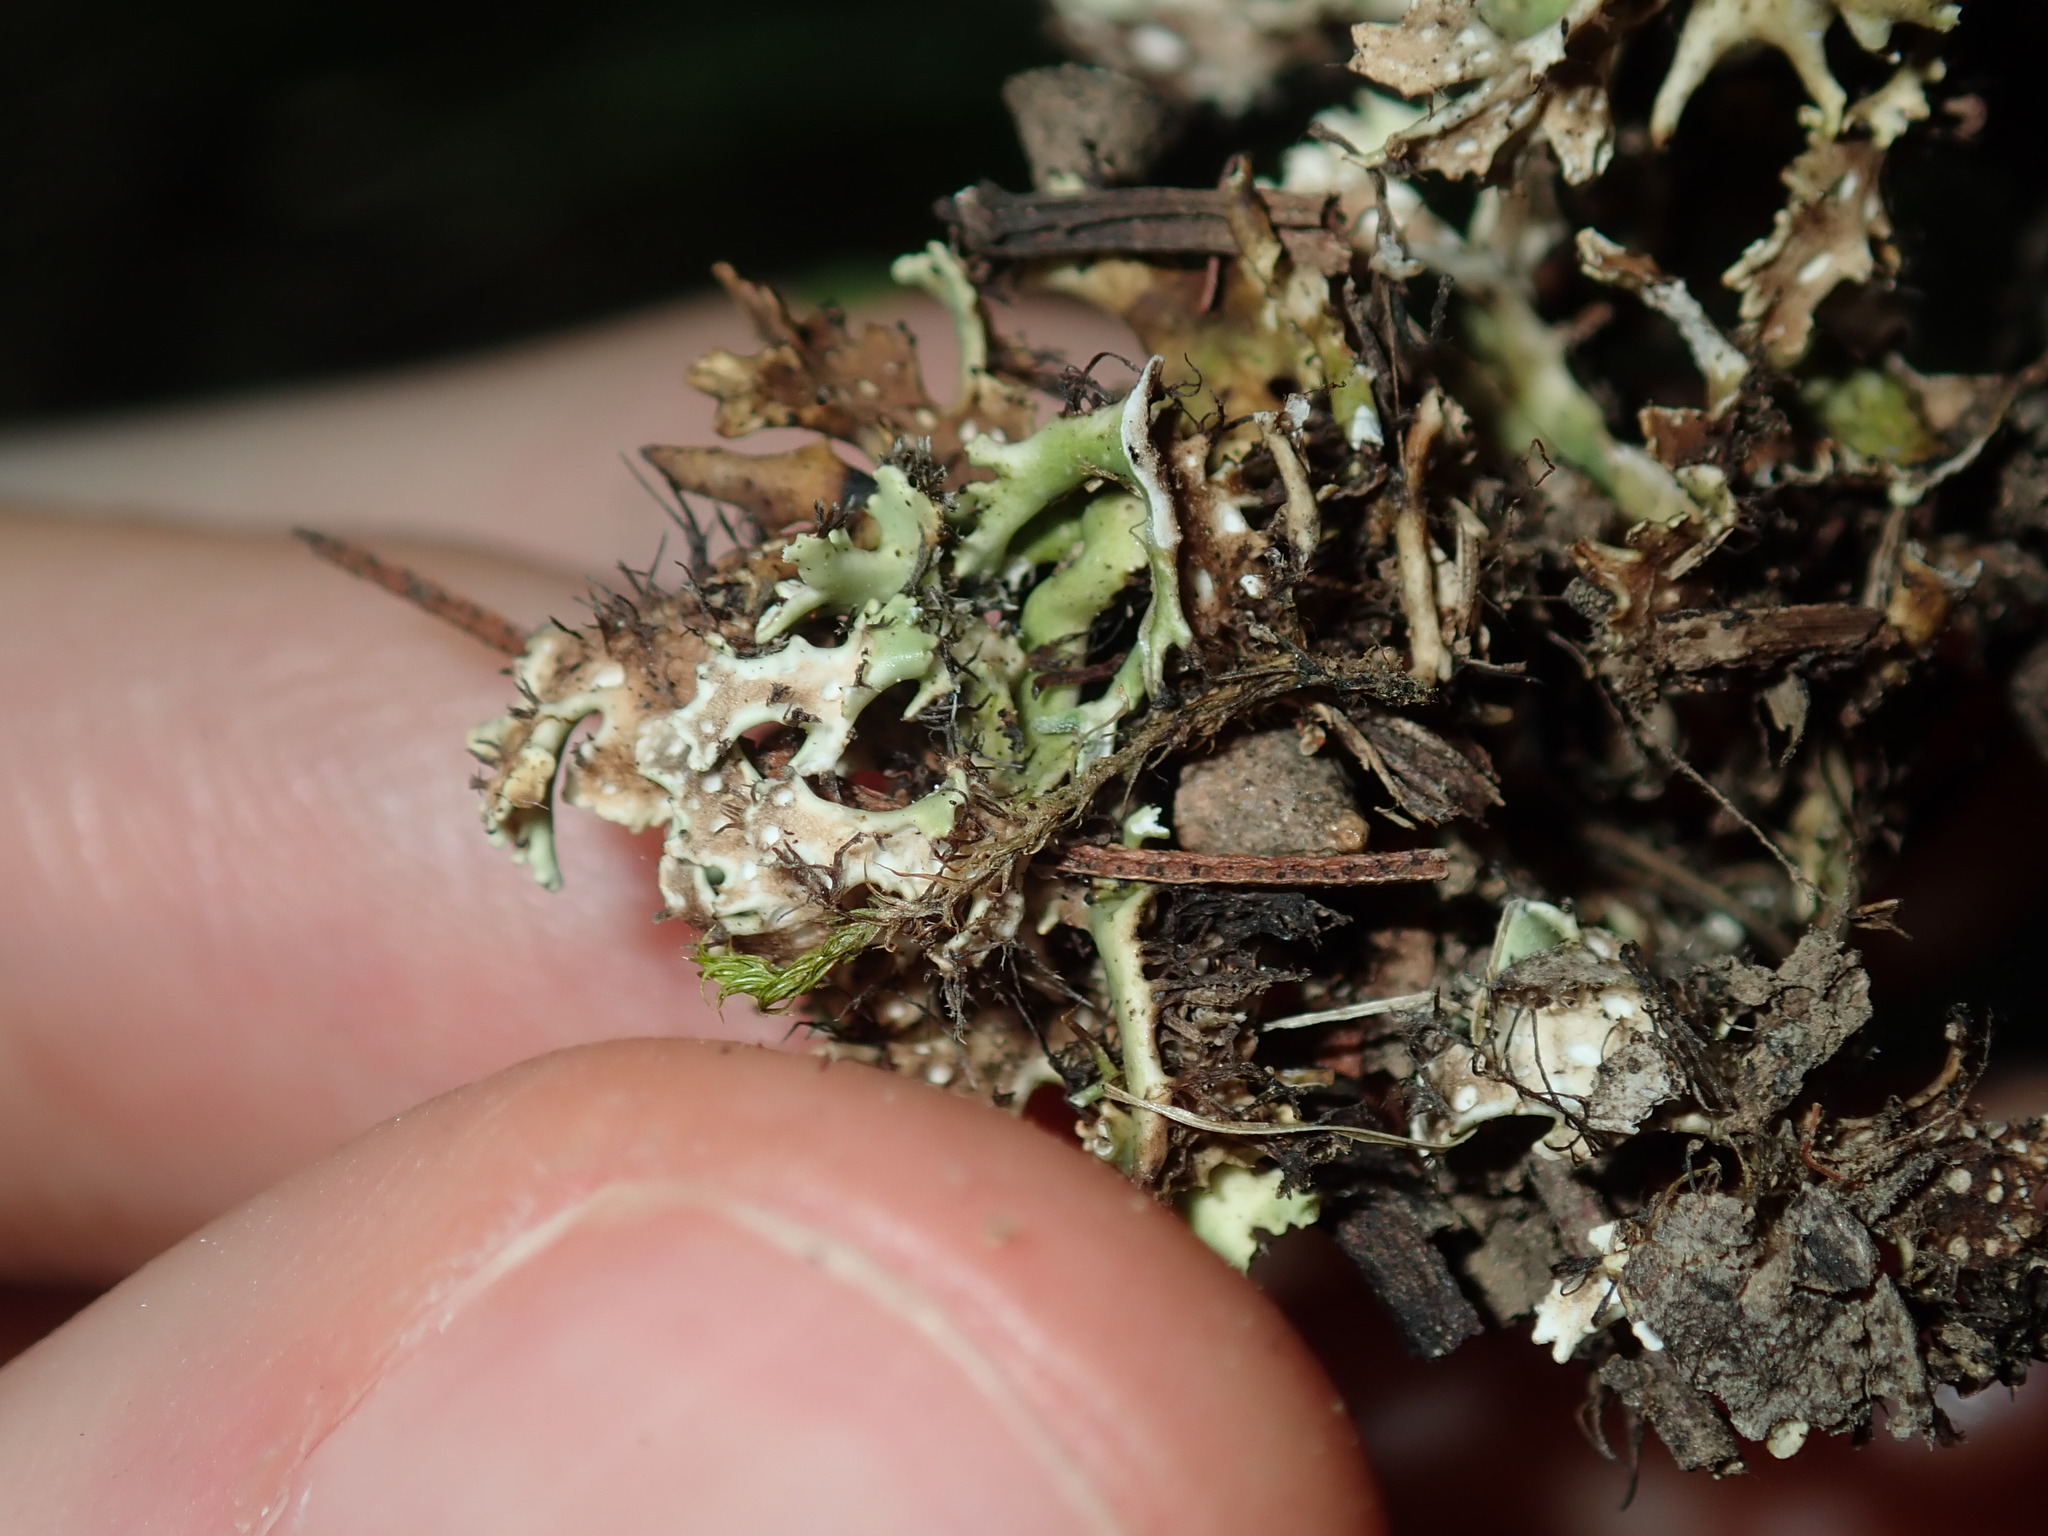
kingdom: Fungi
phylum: Ascomycota
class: Lecanoromycetes
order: Lecanorales
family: Cladoniaceae
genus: Cladia
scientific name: Cladia muelleri
